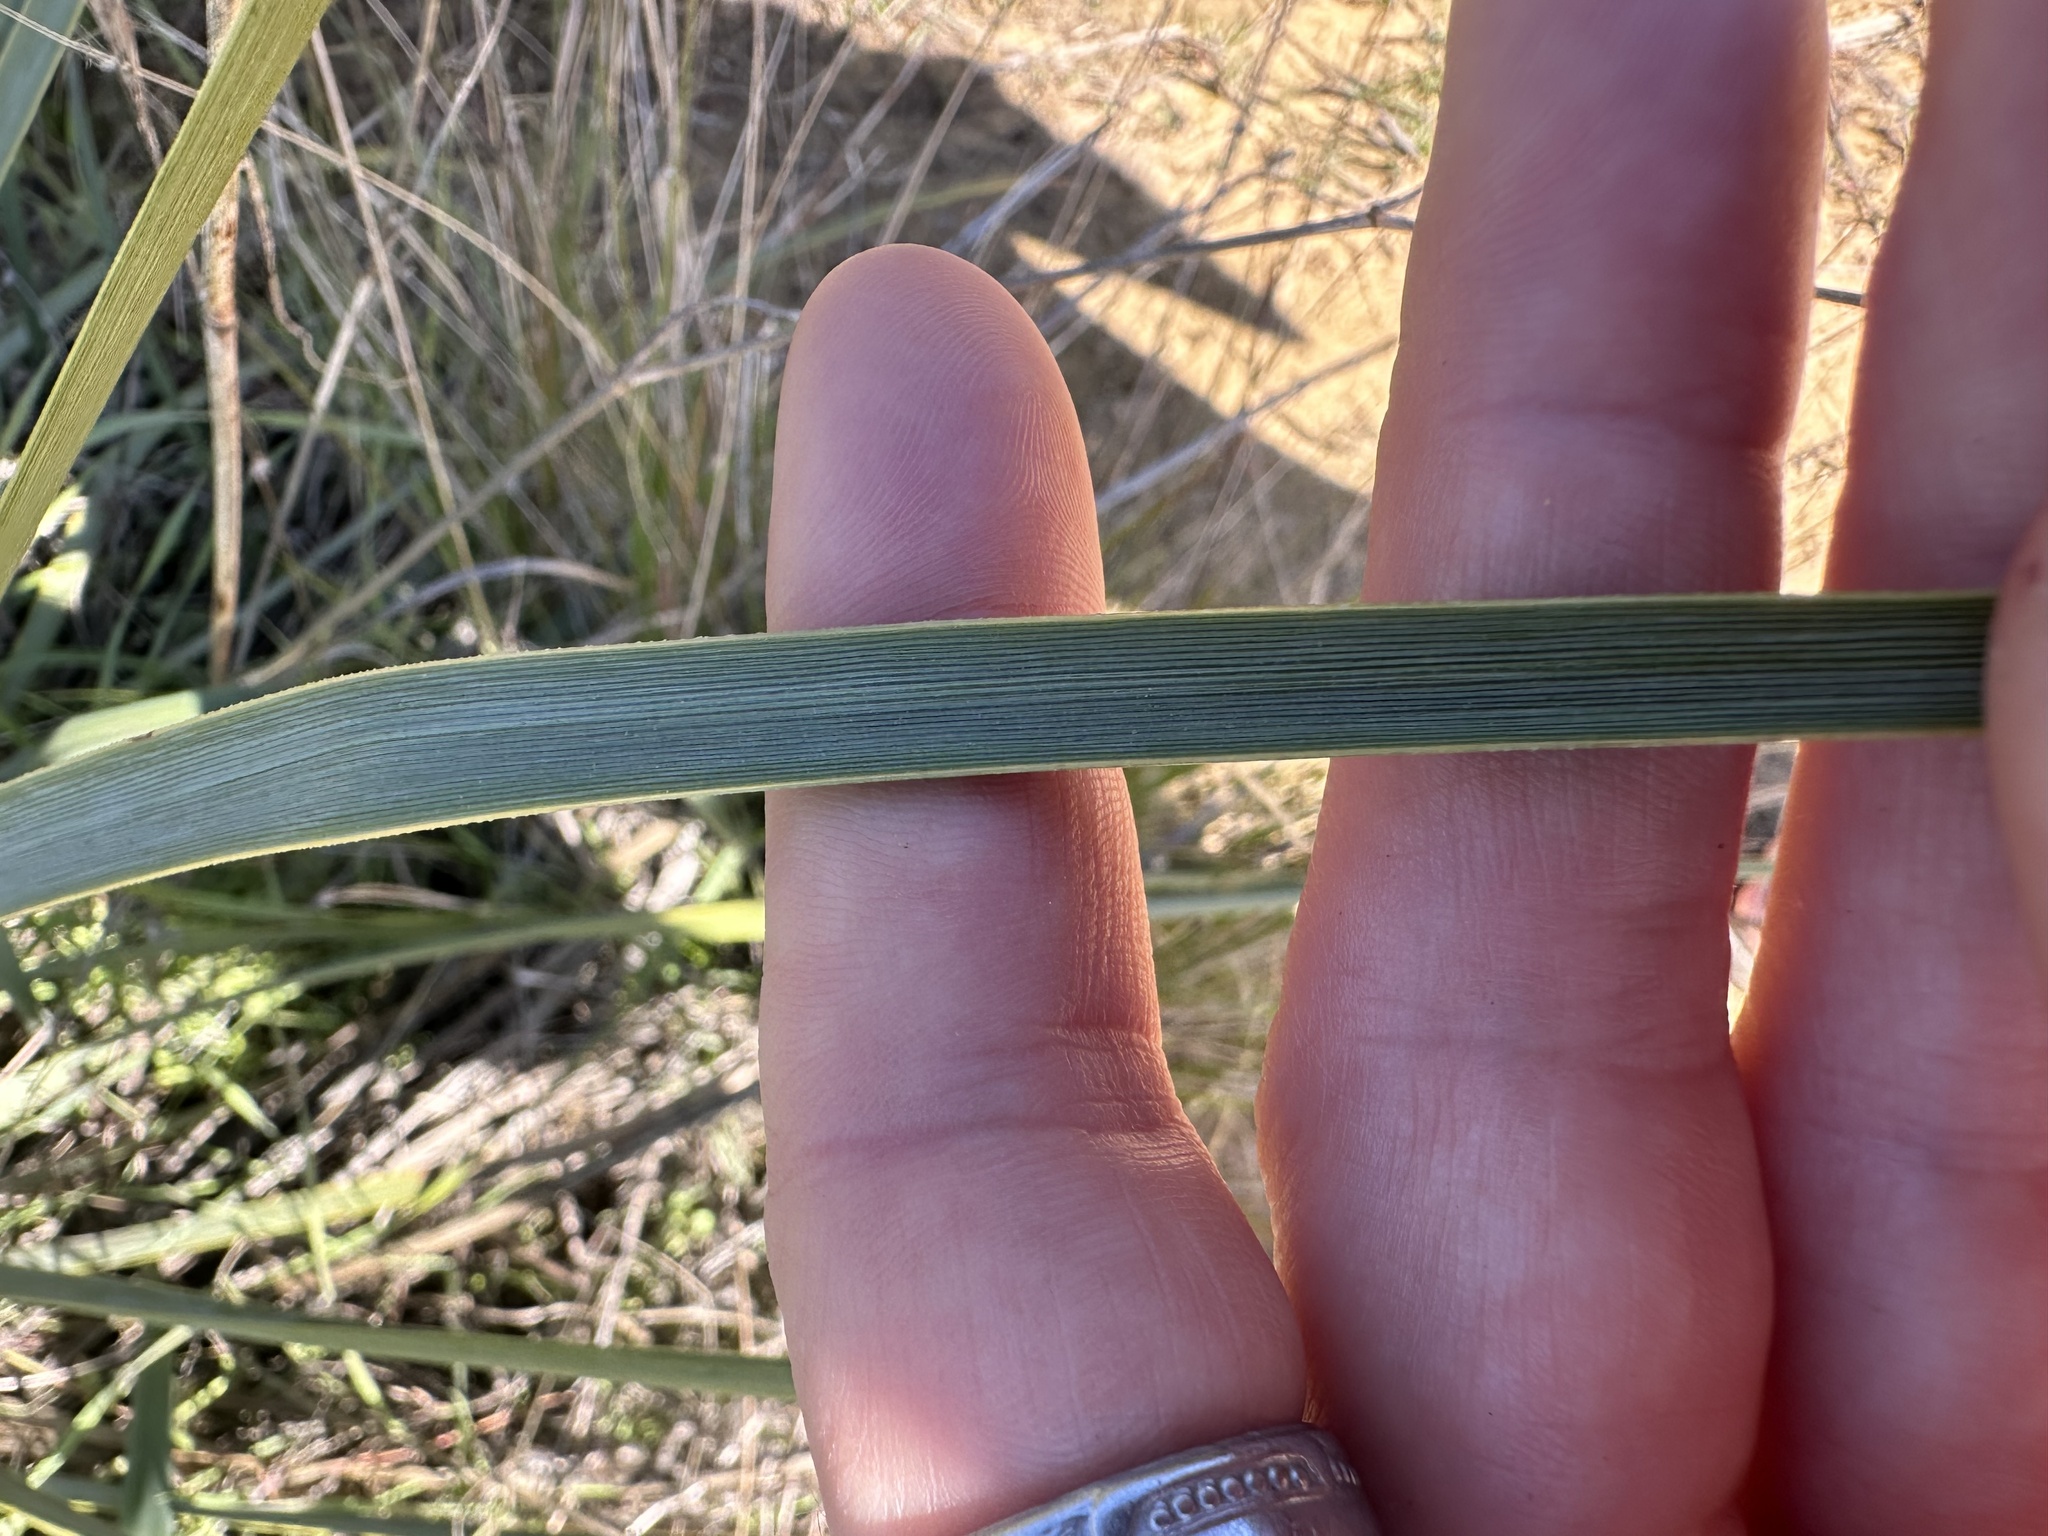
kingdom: Plantae
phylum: Tracheophyta
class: Liliopsida
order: Asparagales
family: Asparagaceae
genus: Hesperoyucca
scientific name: Hesperoyucca whipplei
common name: Our lord's-candle
